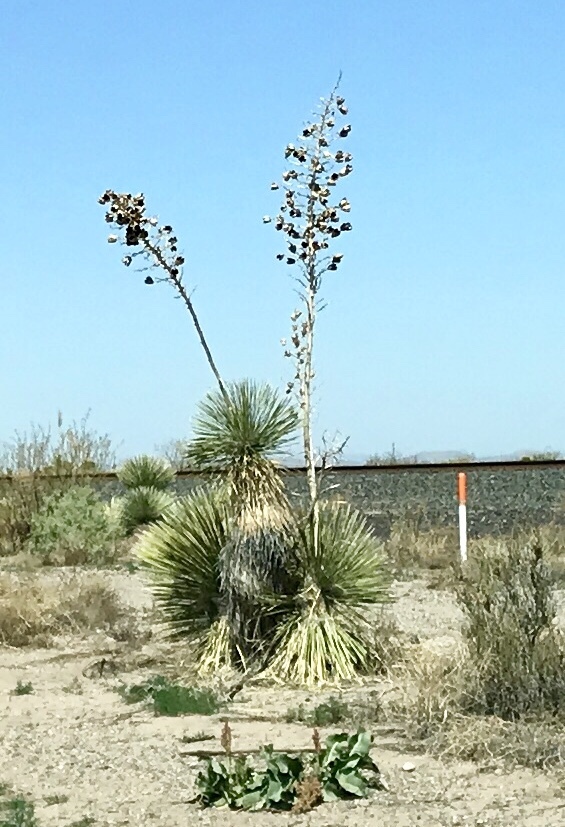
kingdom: Plantae
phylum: Tracheophyta
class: Liliopsida
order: Asparagales
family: Asparagaceae
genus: Yucca
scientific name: Yucca elata
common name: Palmella
